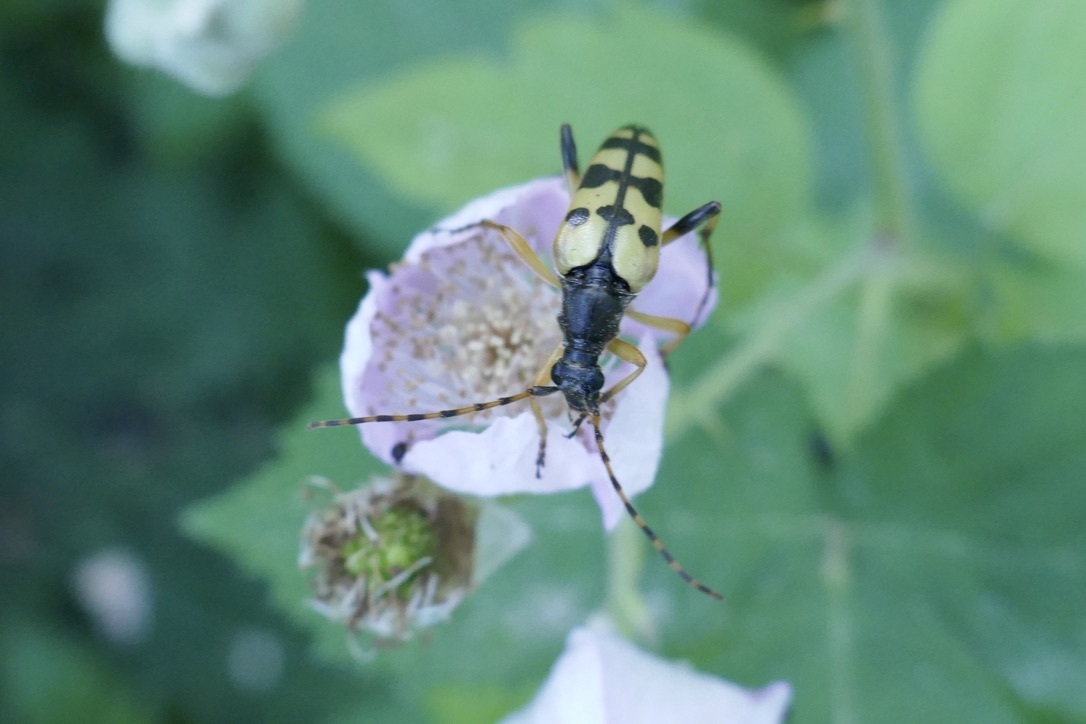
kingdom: Animalia
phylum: Arthropoda
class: Insecta
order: Coleoptera
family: Cerambycidae
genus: Rutpela
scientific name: Rutpela maculata
